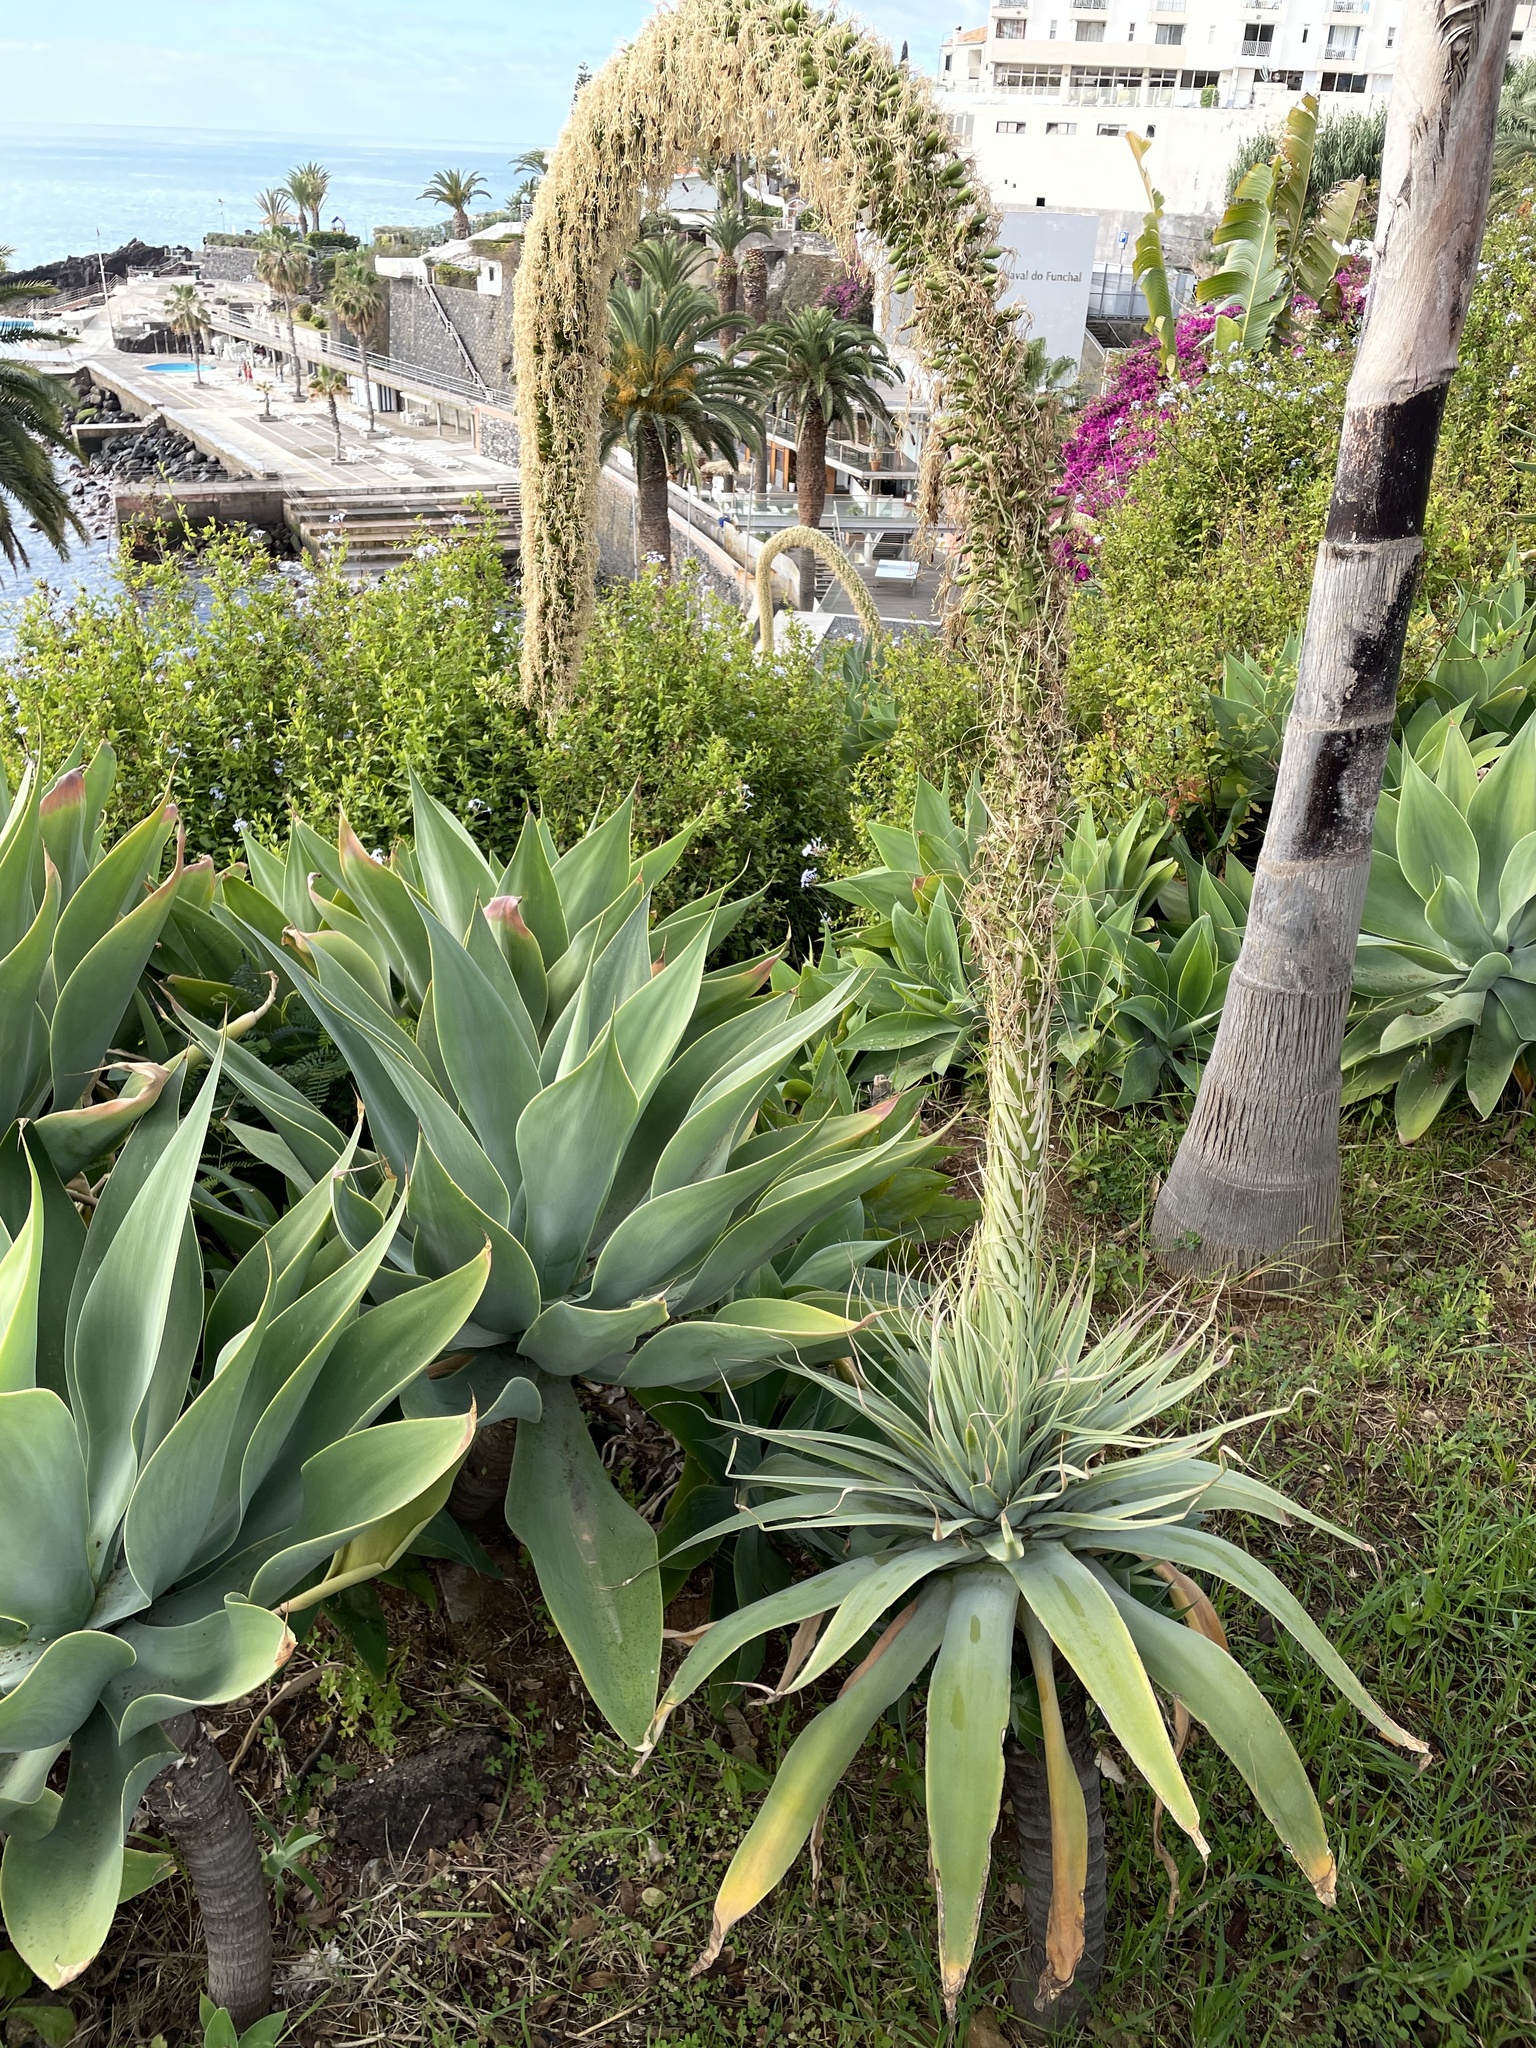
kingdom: Plantae
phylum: Tracheophyta
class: Liliopsida
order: Asparagales
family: Asparagaceae
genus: Agave
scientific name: Agave attenuata
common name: Fox tail agave
